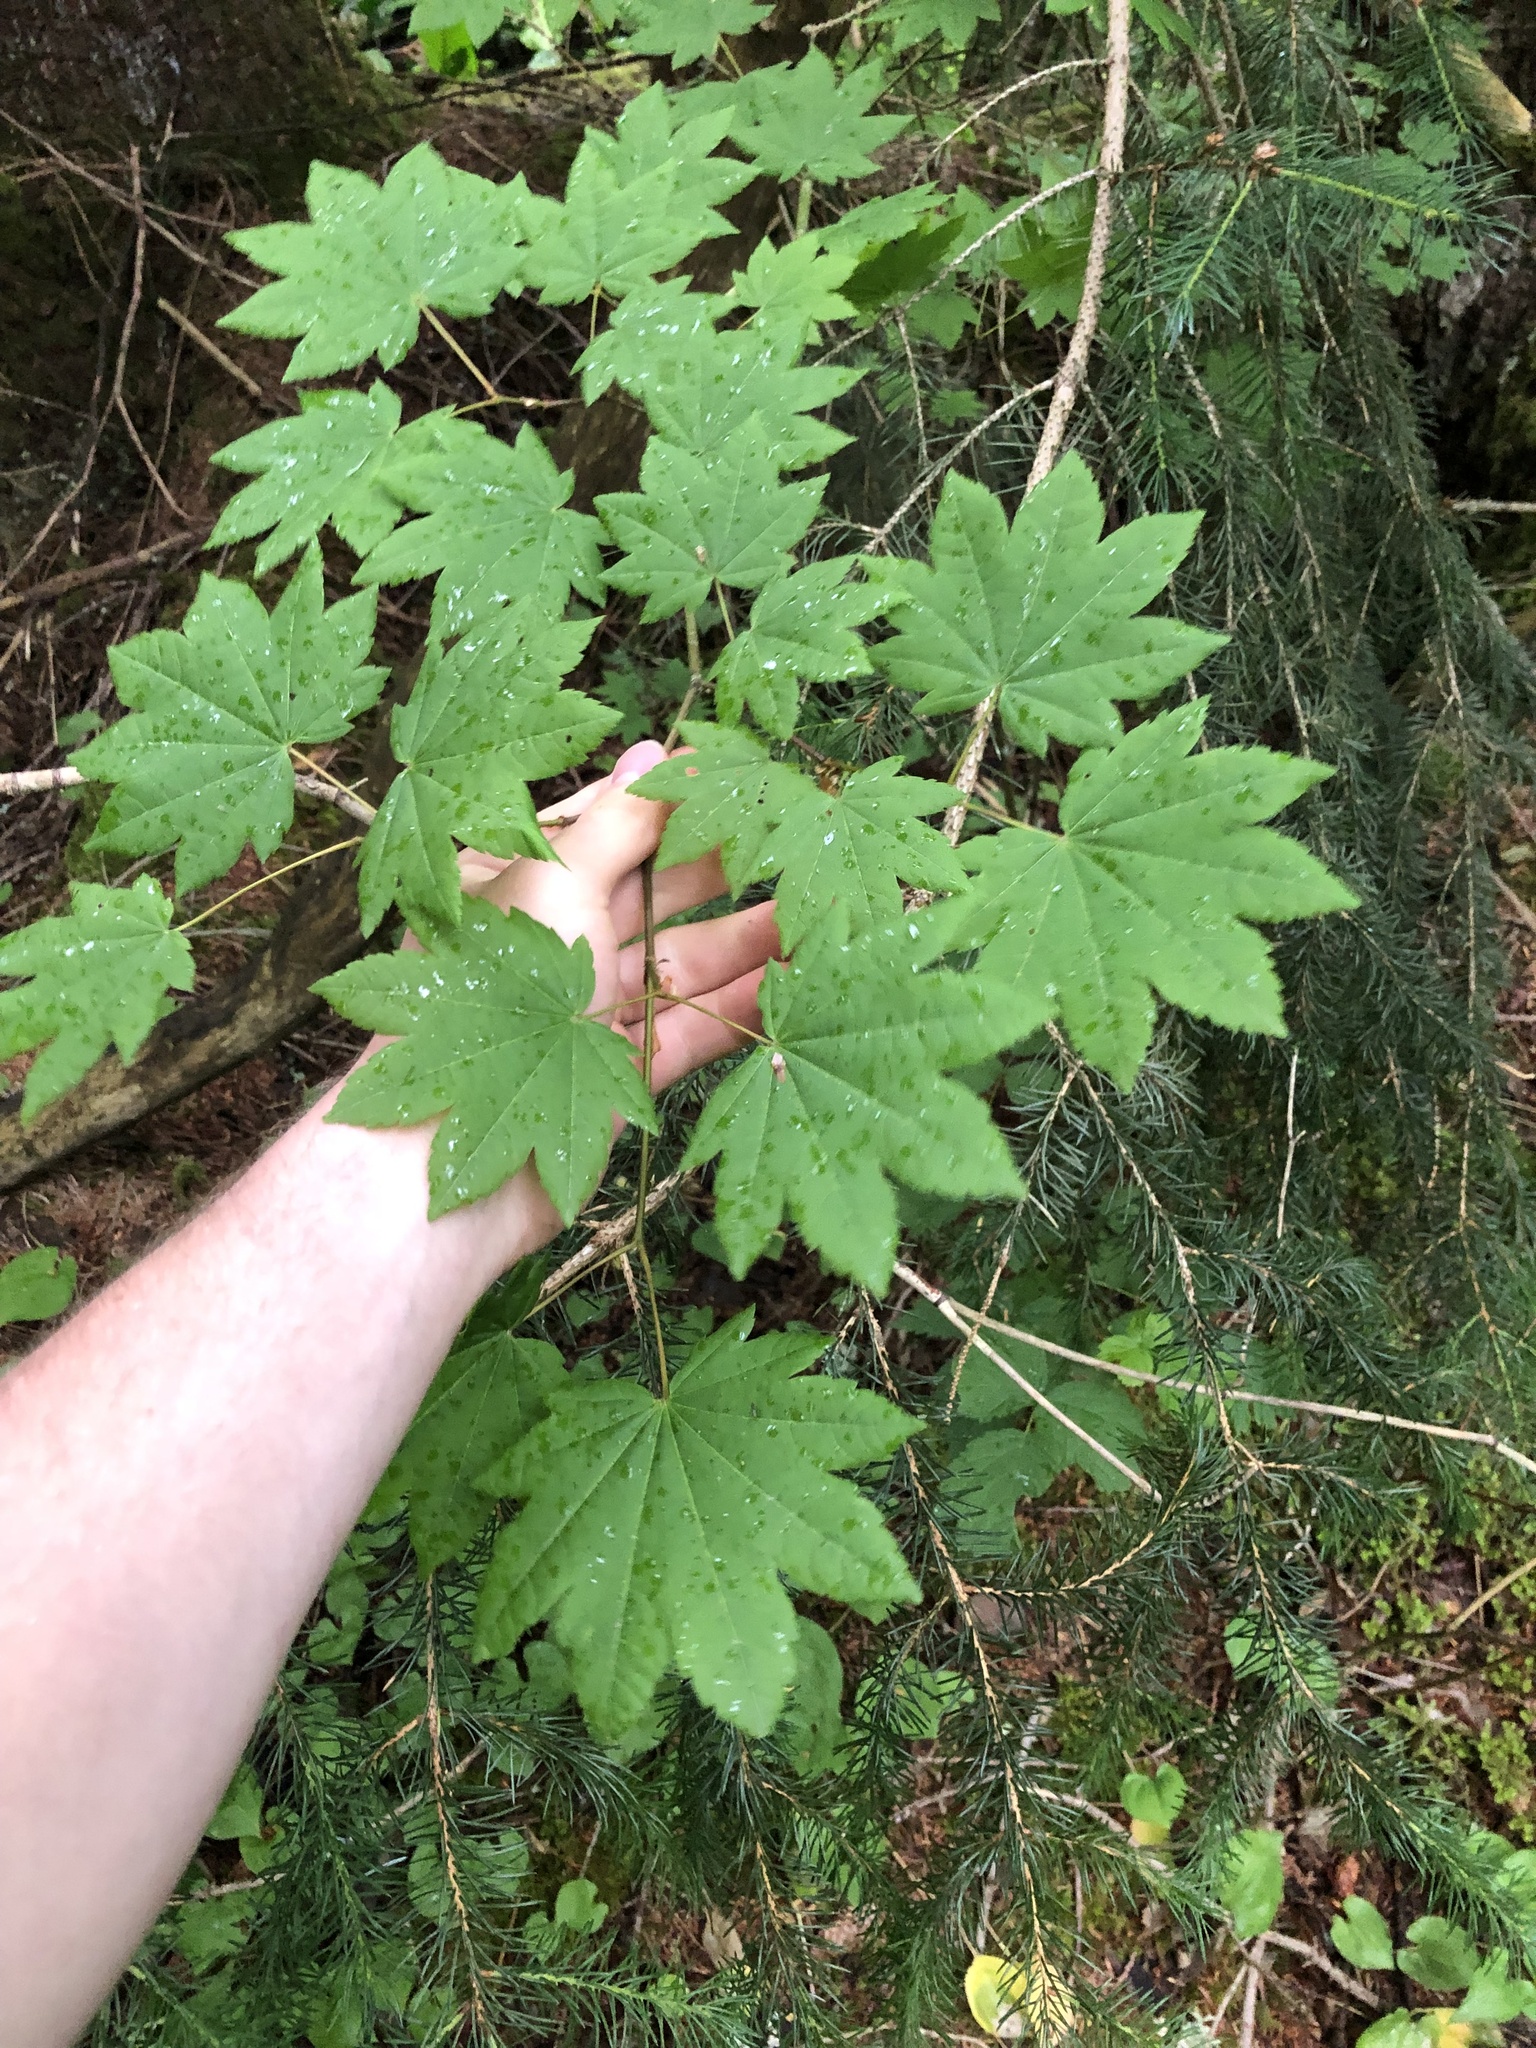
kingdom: Plantae
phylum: Tracheophyta
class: Magnoliopsida
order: Sapindales
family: Sapindaceae
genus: Acer
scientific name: Acer circinatum
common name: Vine maple
